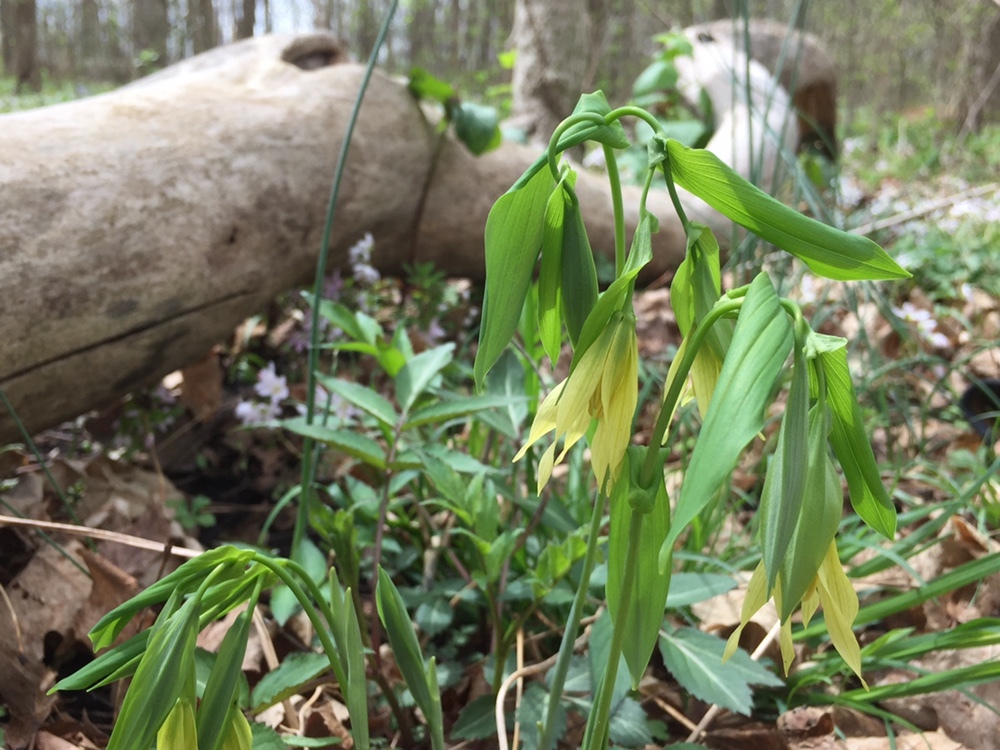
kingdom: Plantae
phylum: Tracheophyta
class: Liliopsida
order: Liliales
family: Colchicaceae
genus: Uvularia
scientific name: Uvularia grandiflora
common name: Bellwort
